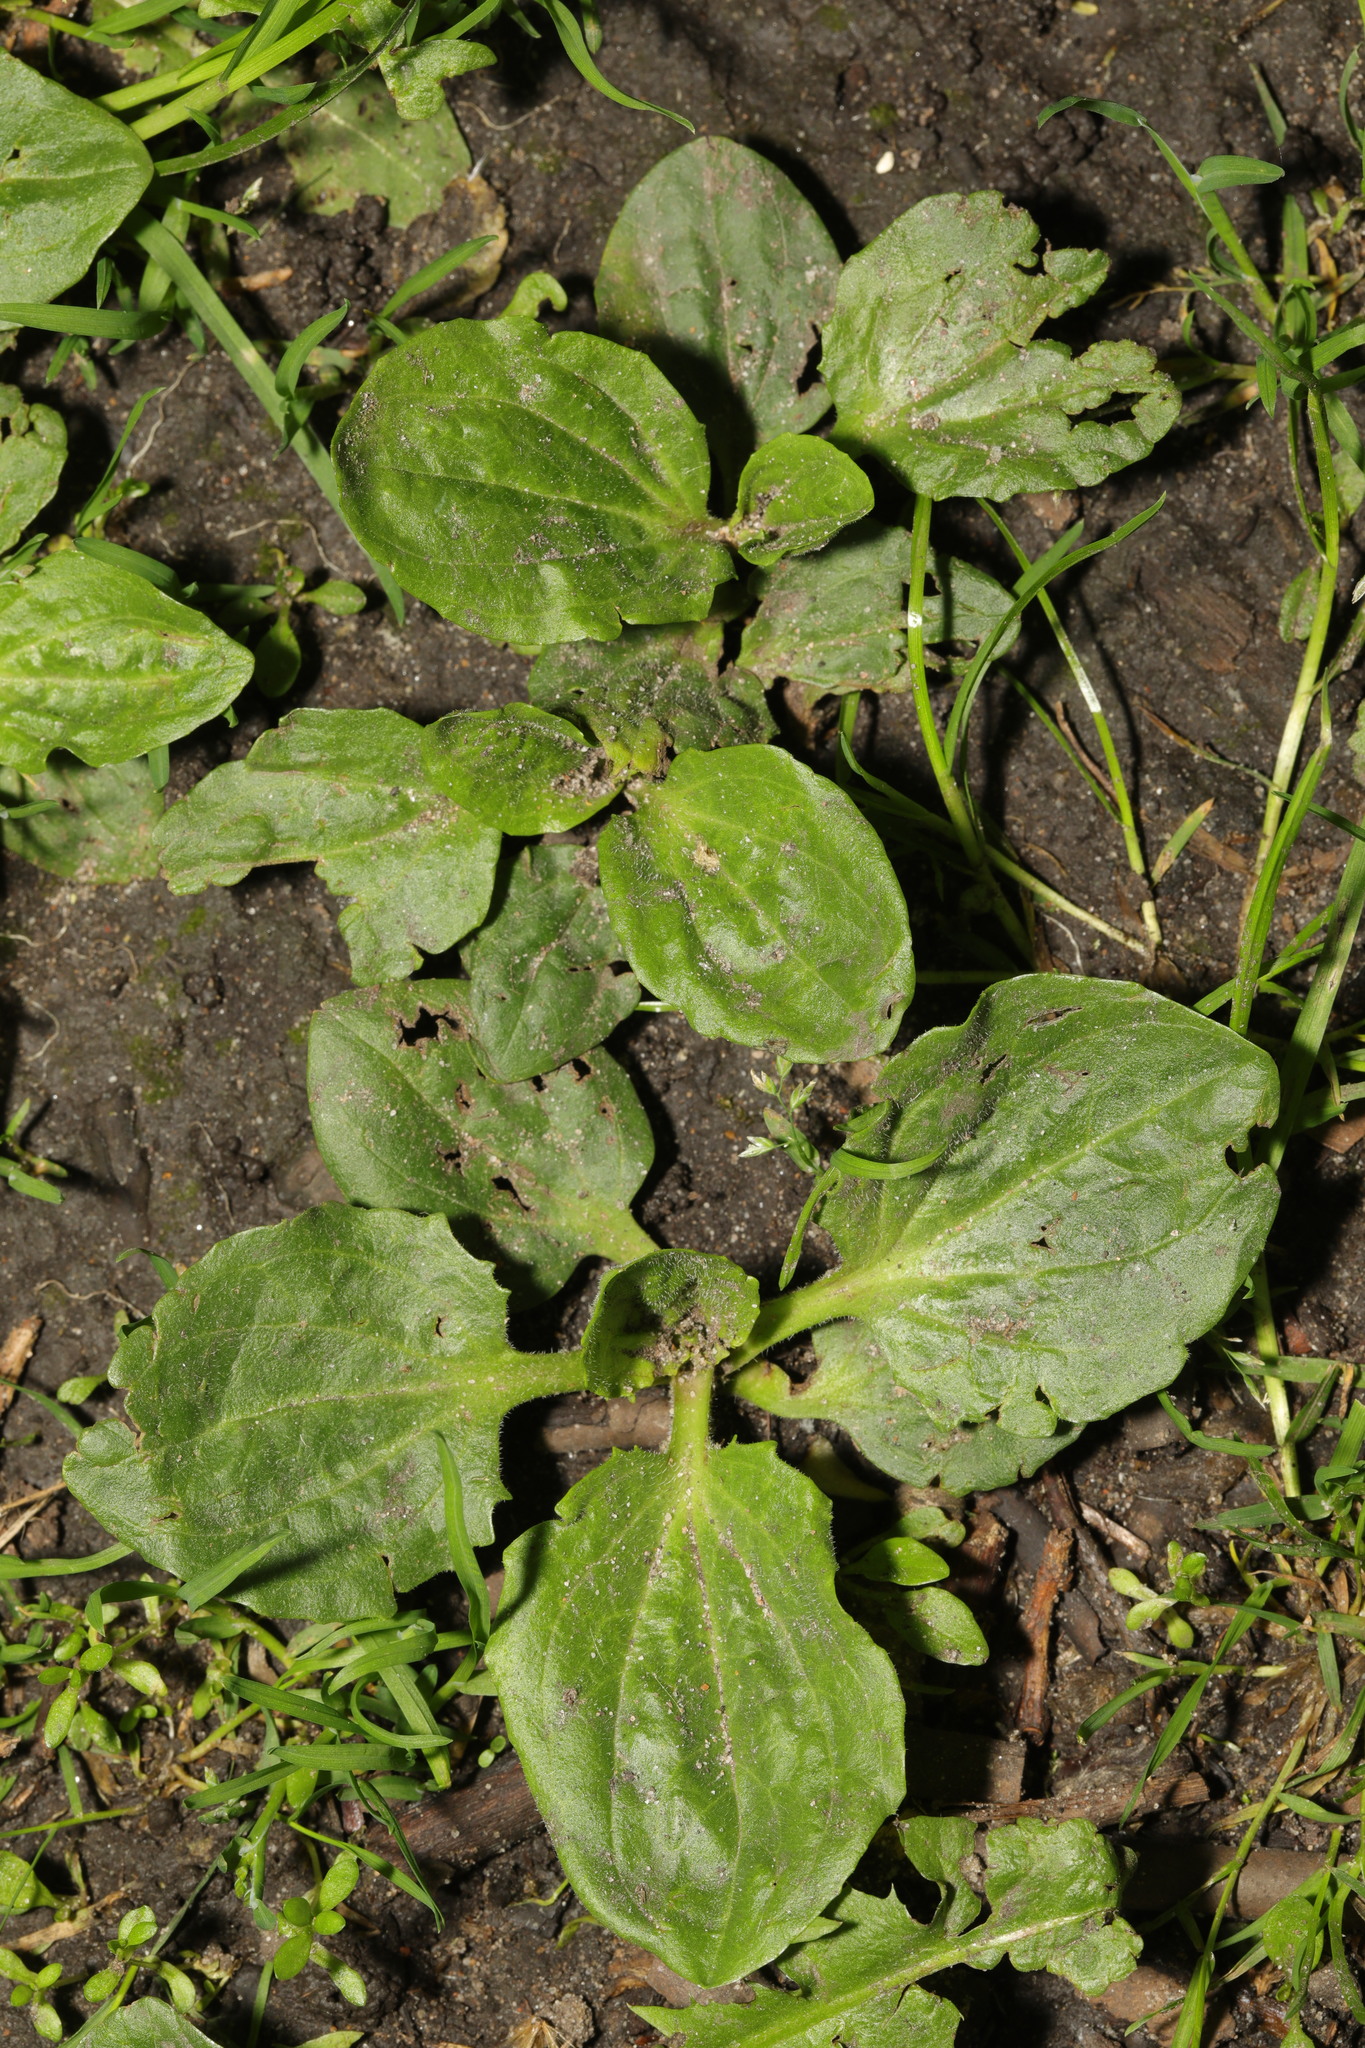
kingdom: Plantae
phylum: Tracheophyta
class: Magnoliopsida
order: Lamiales
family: Plantaginaceae
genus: Plantago
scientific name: Plantago major
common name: Common plantain
